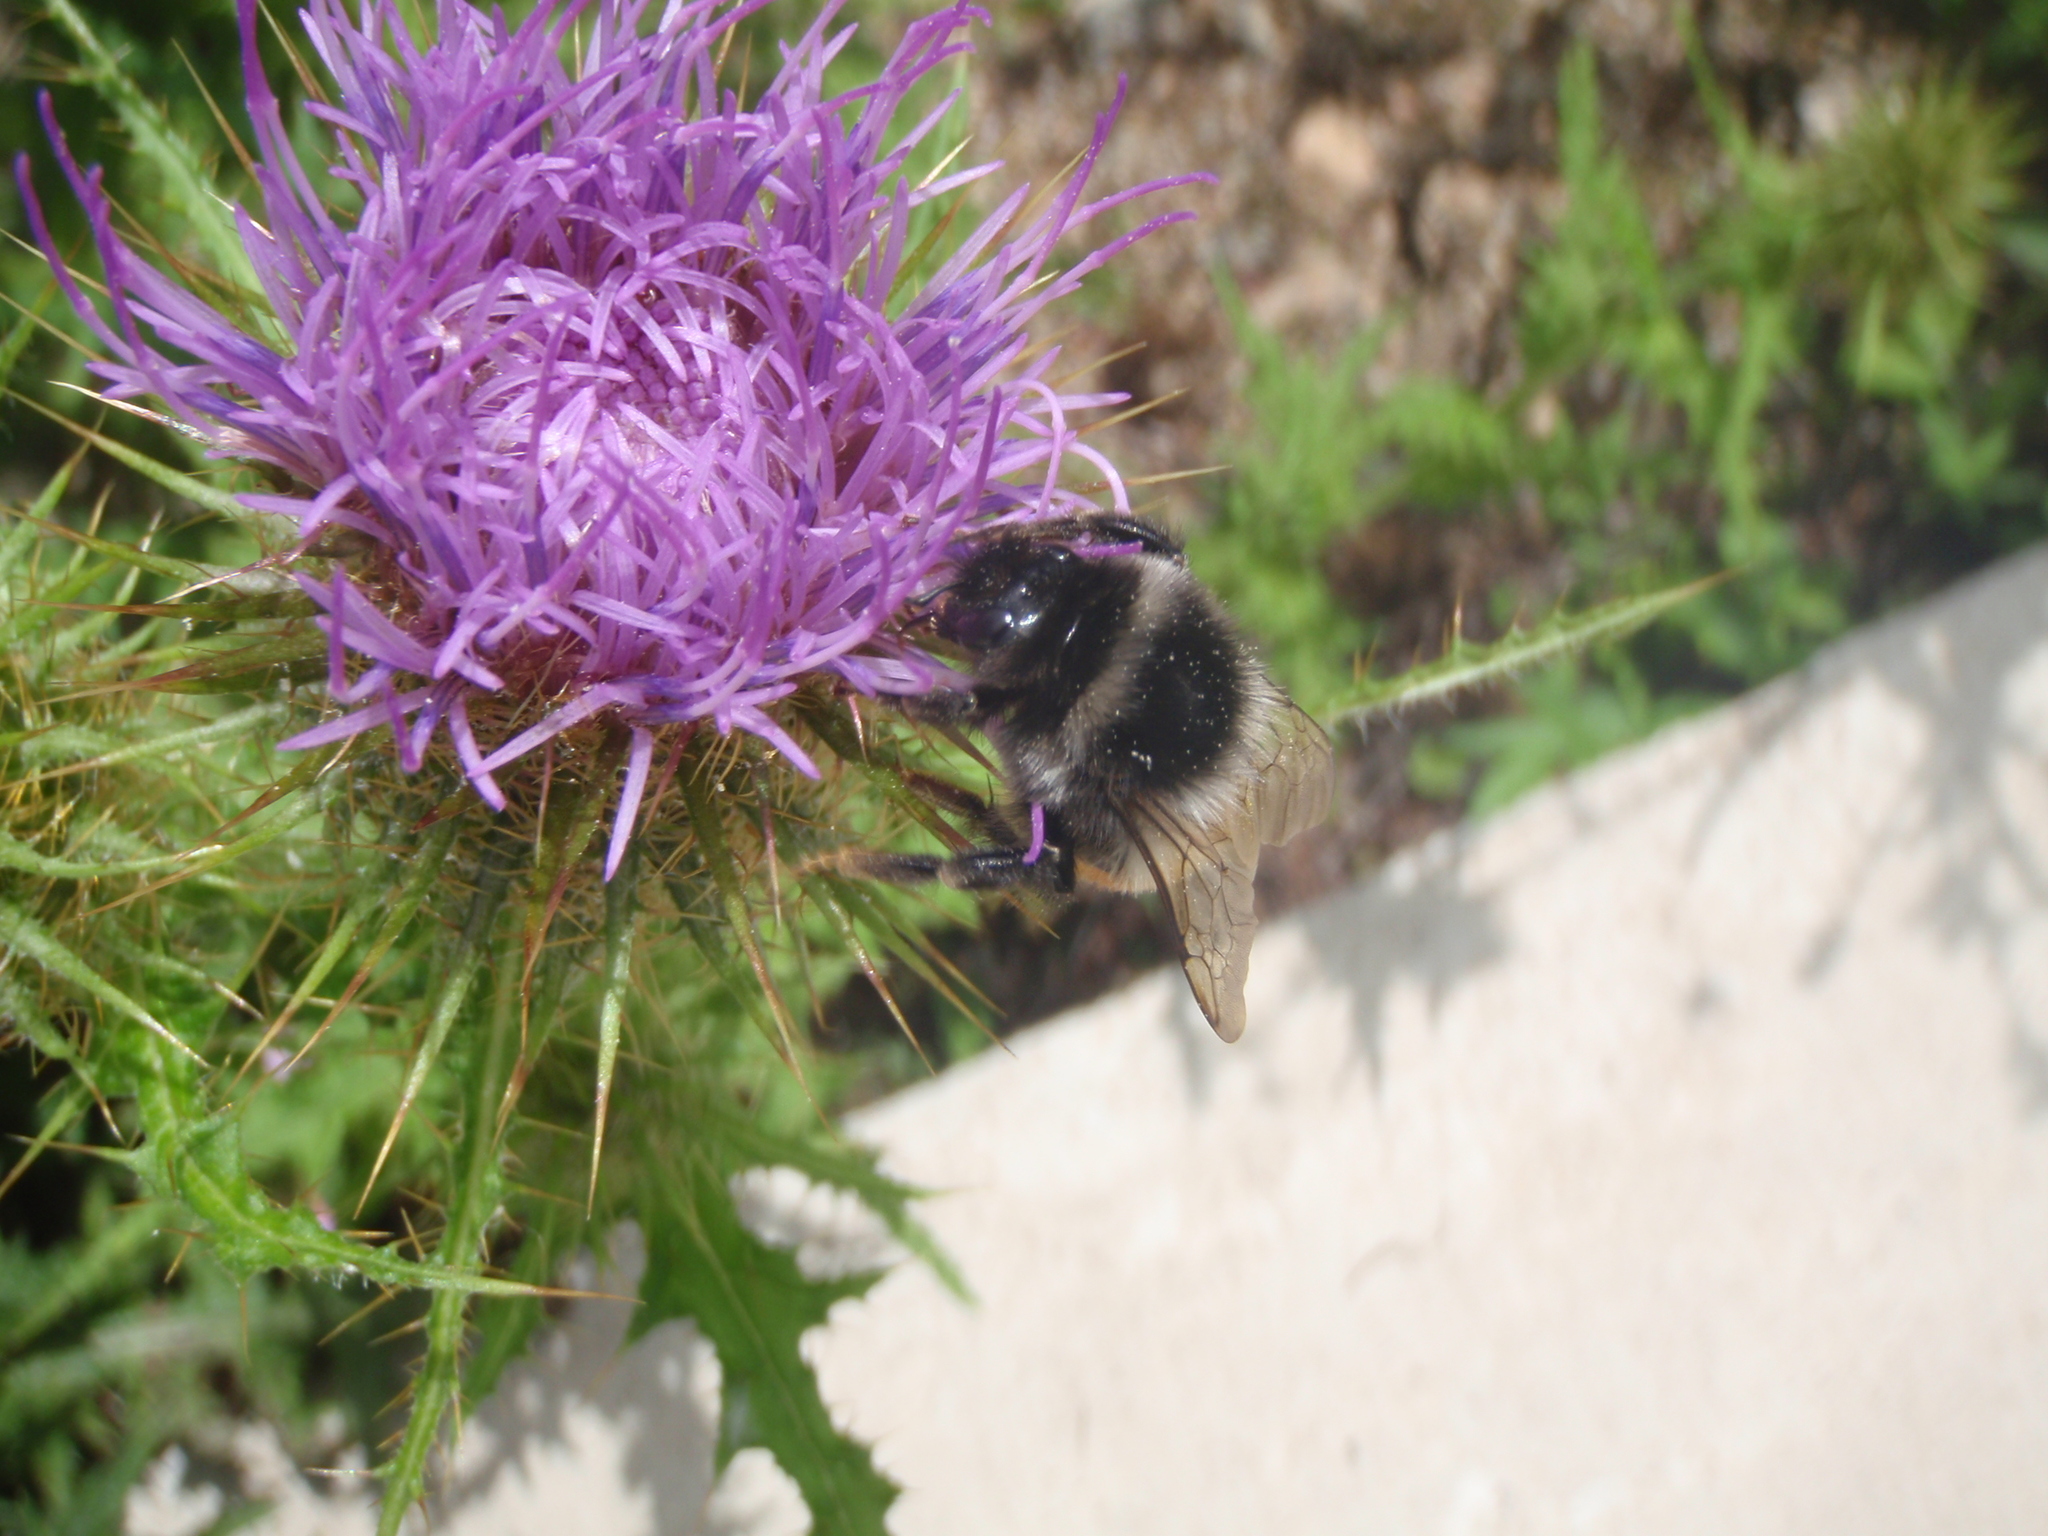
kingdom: Animalia
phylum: Arthropoda
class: Insecta
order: Hymenoptera
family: Apidae
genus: Bombus
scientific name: Bombus pyrosoma
